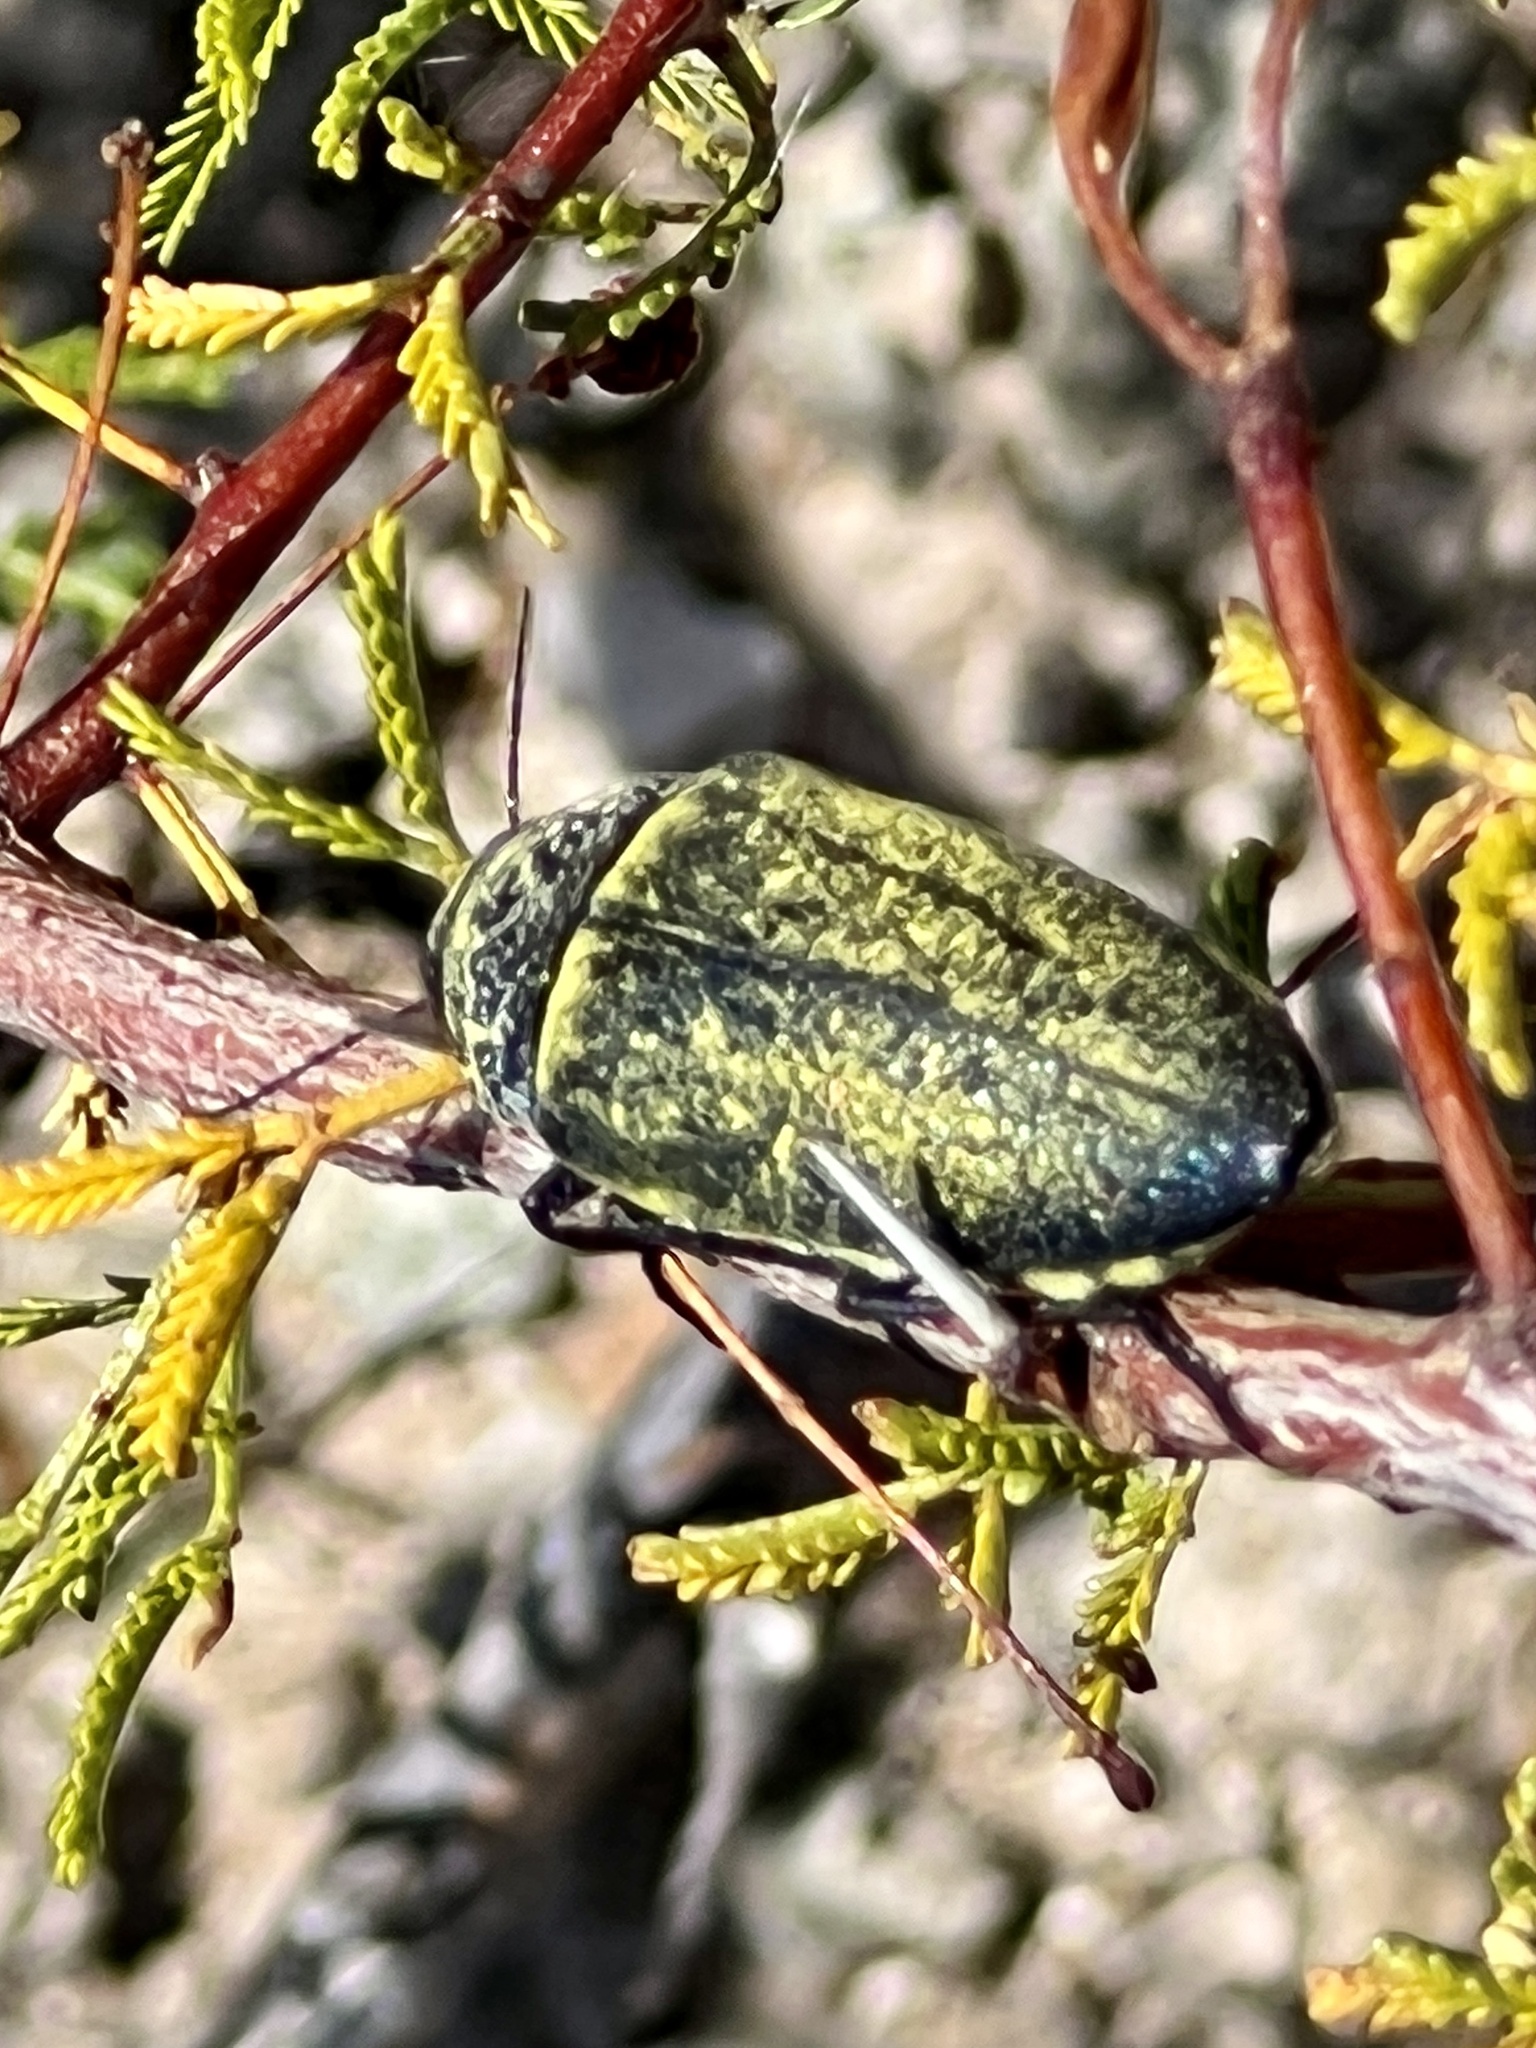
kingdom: Animalia
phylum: Arthropoda
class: Insecta
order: Coleoptera
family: Buprestidae
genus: Gyascutus
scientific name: Gyascutus caelatus
